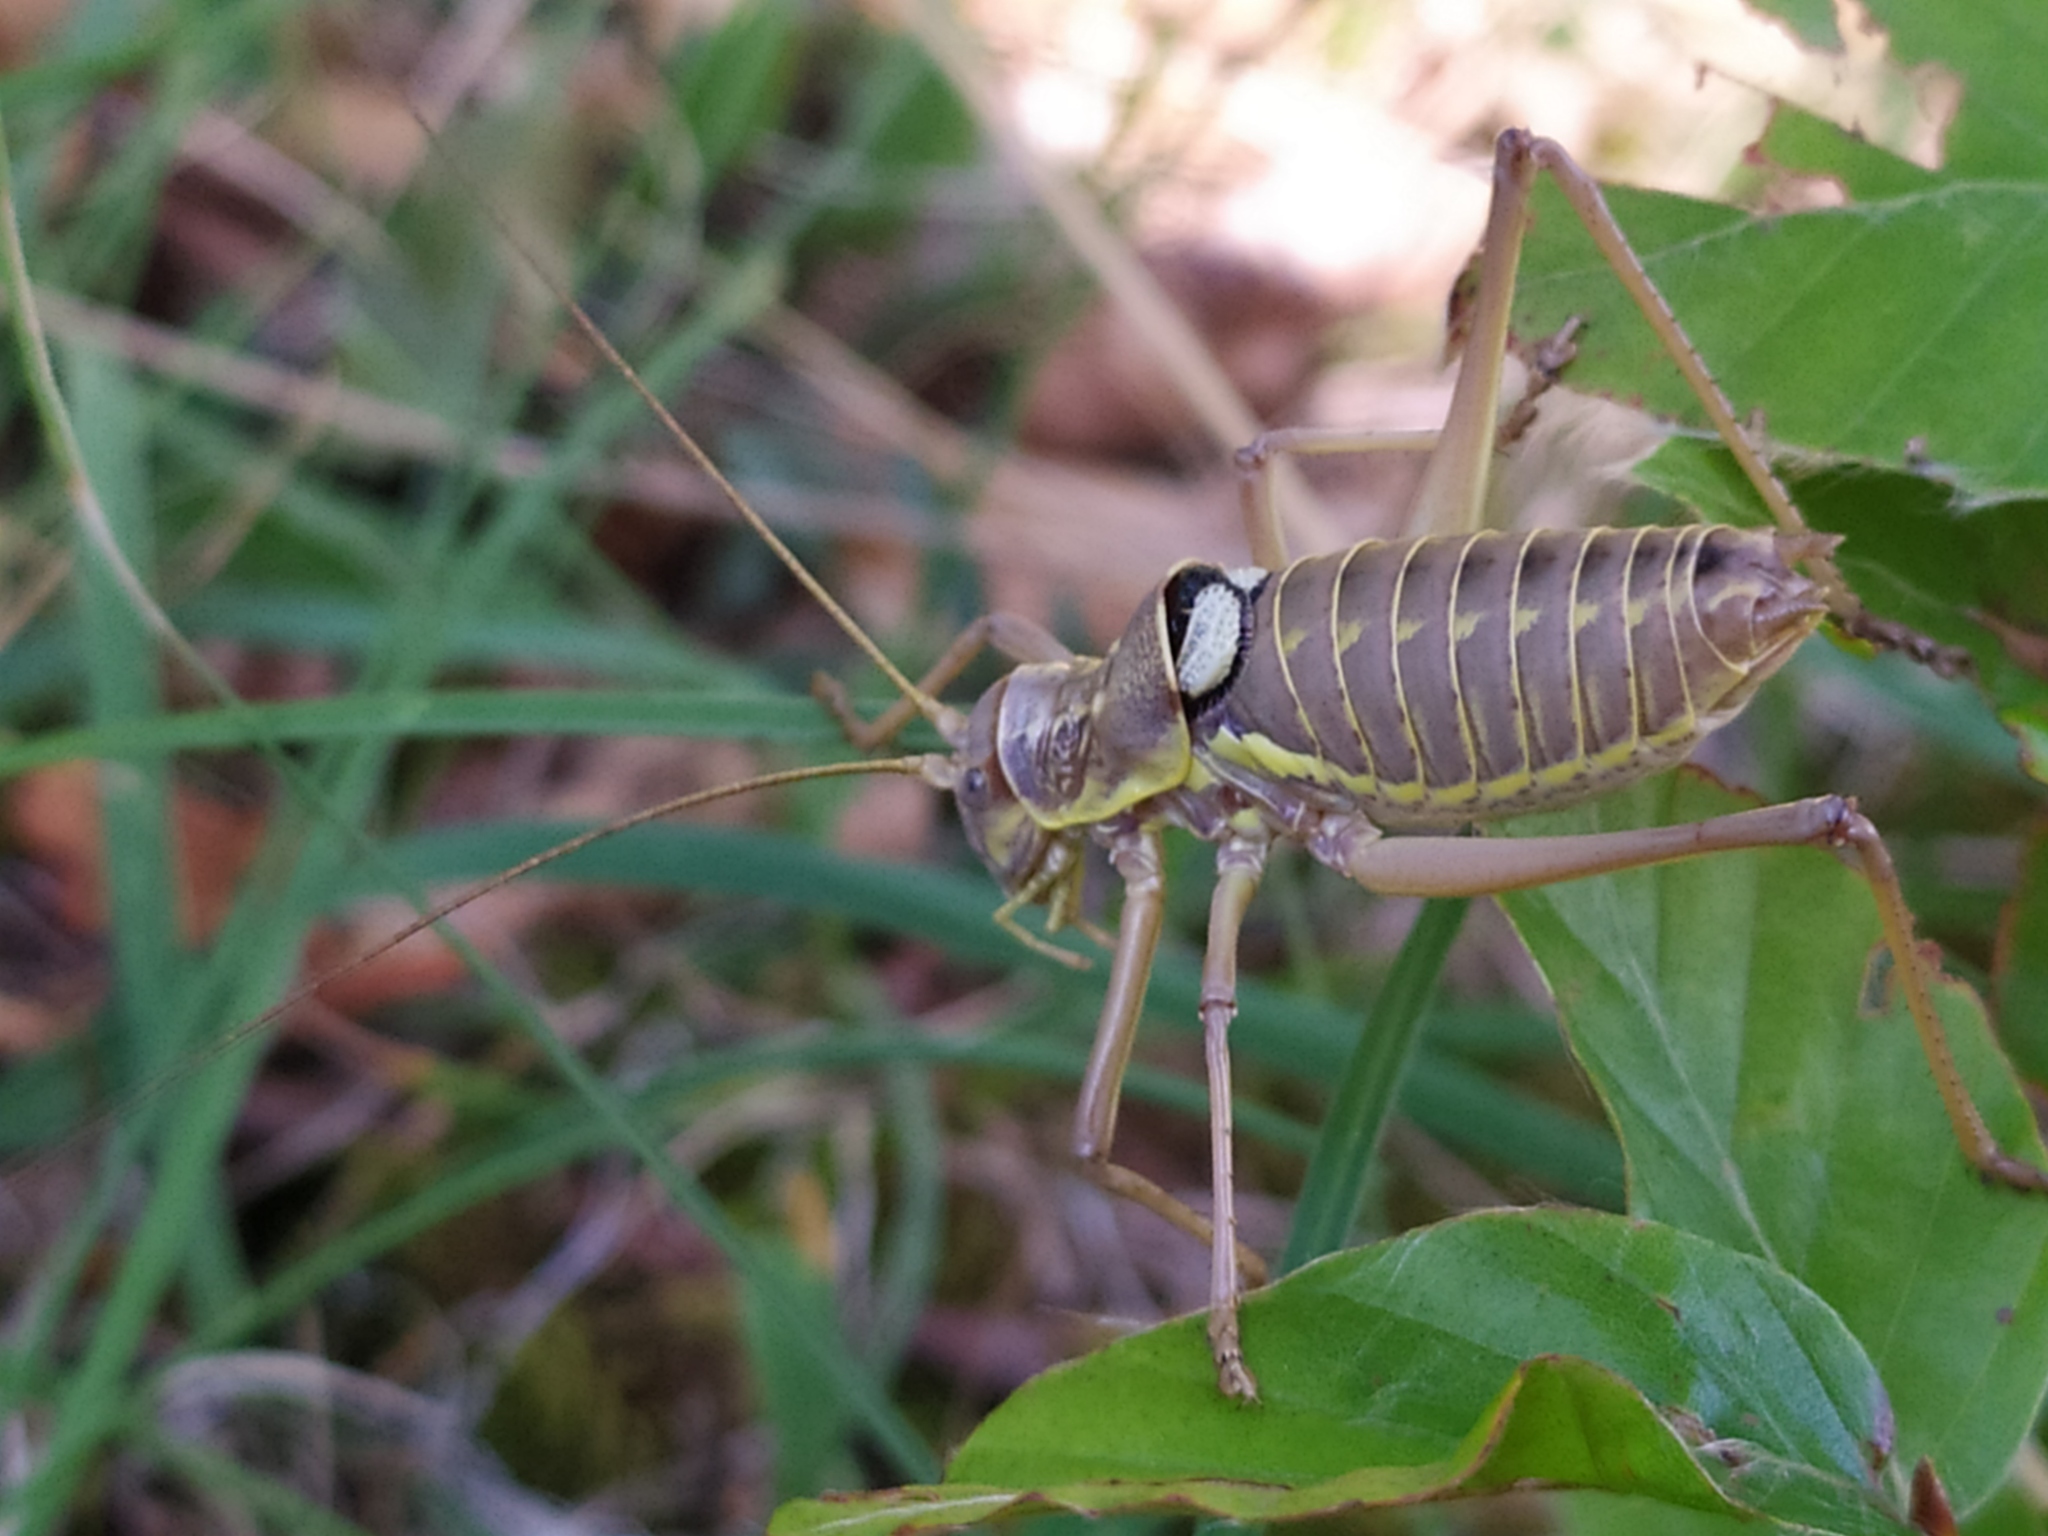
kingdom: Animalia
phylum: Arthropoda
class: Insecta
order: Orthoptera
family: Tettigoniidae
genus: Dinarippiger
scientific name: Dinarippiger discoidalis
